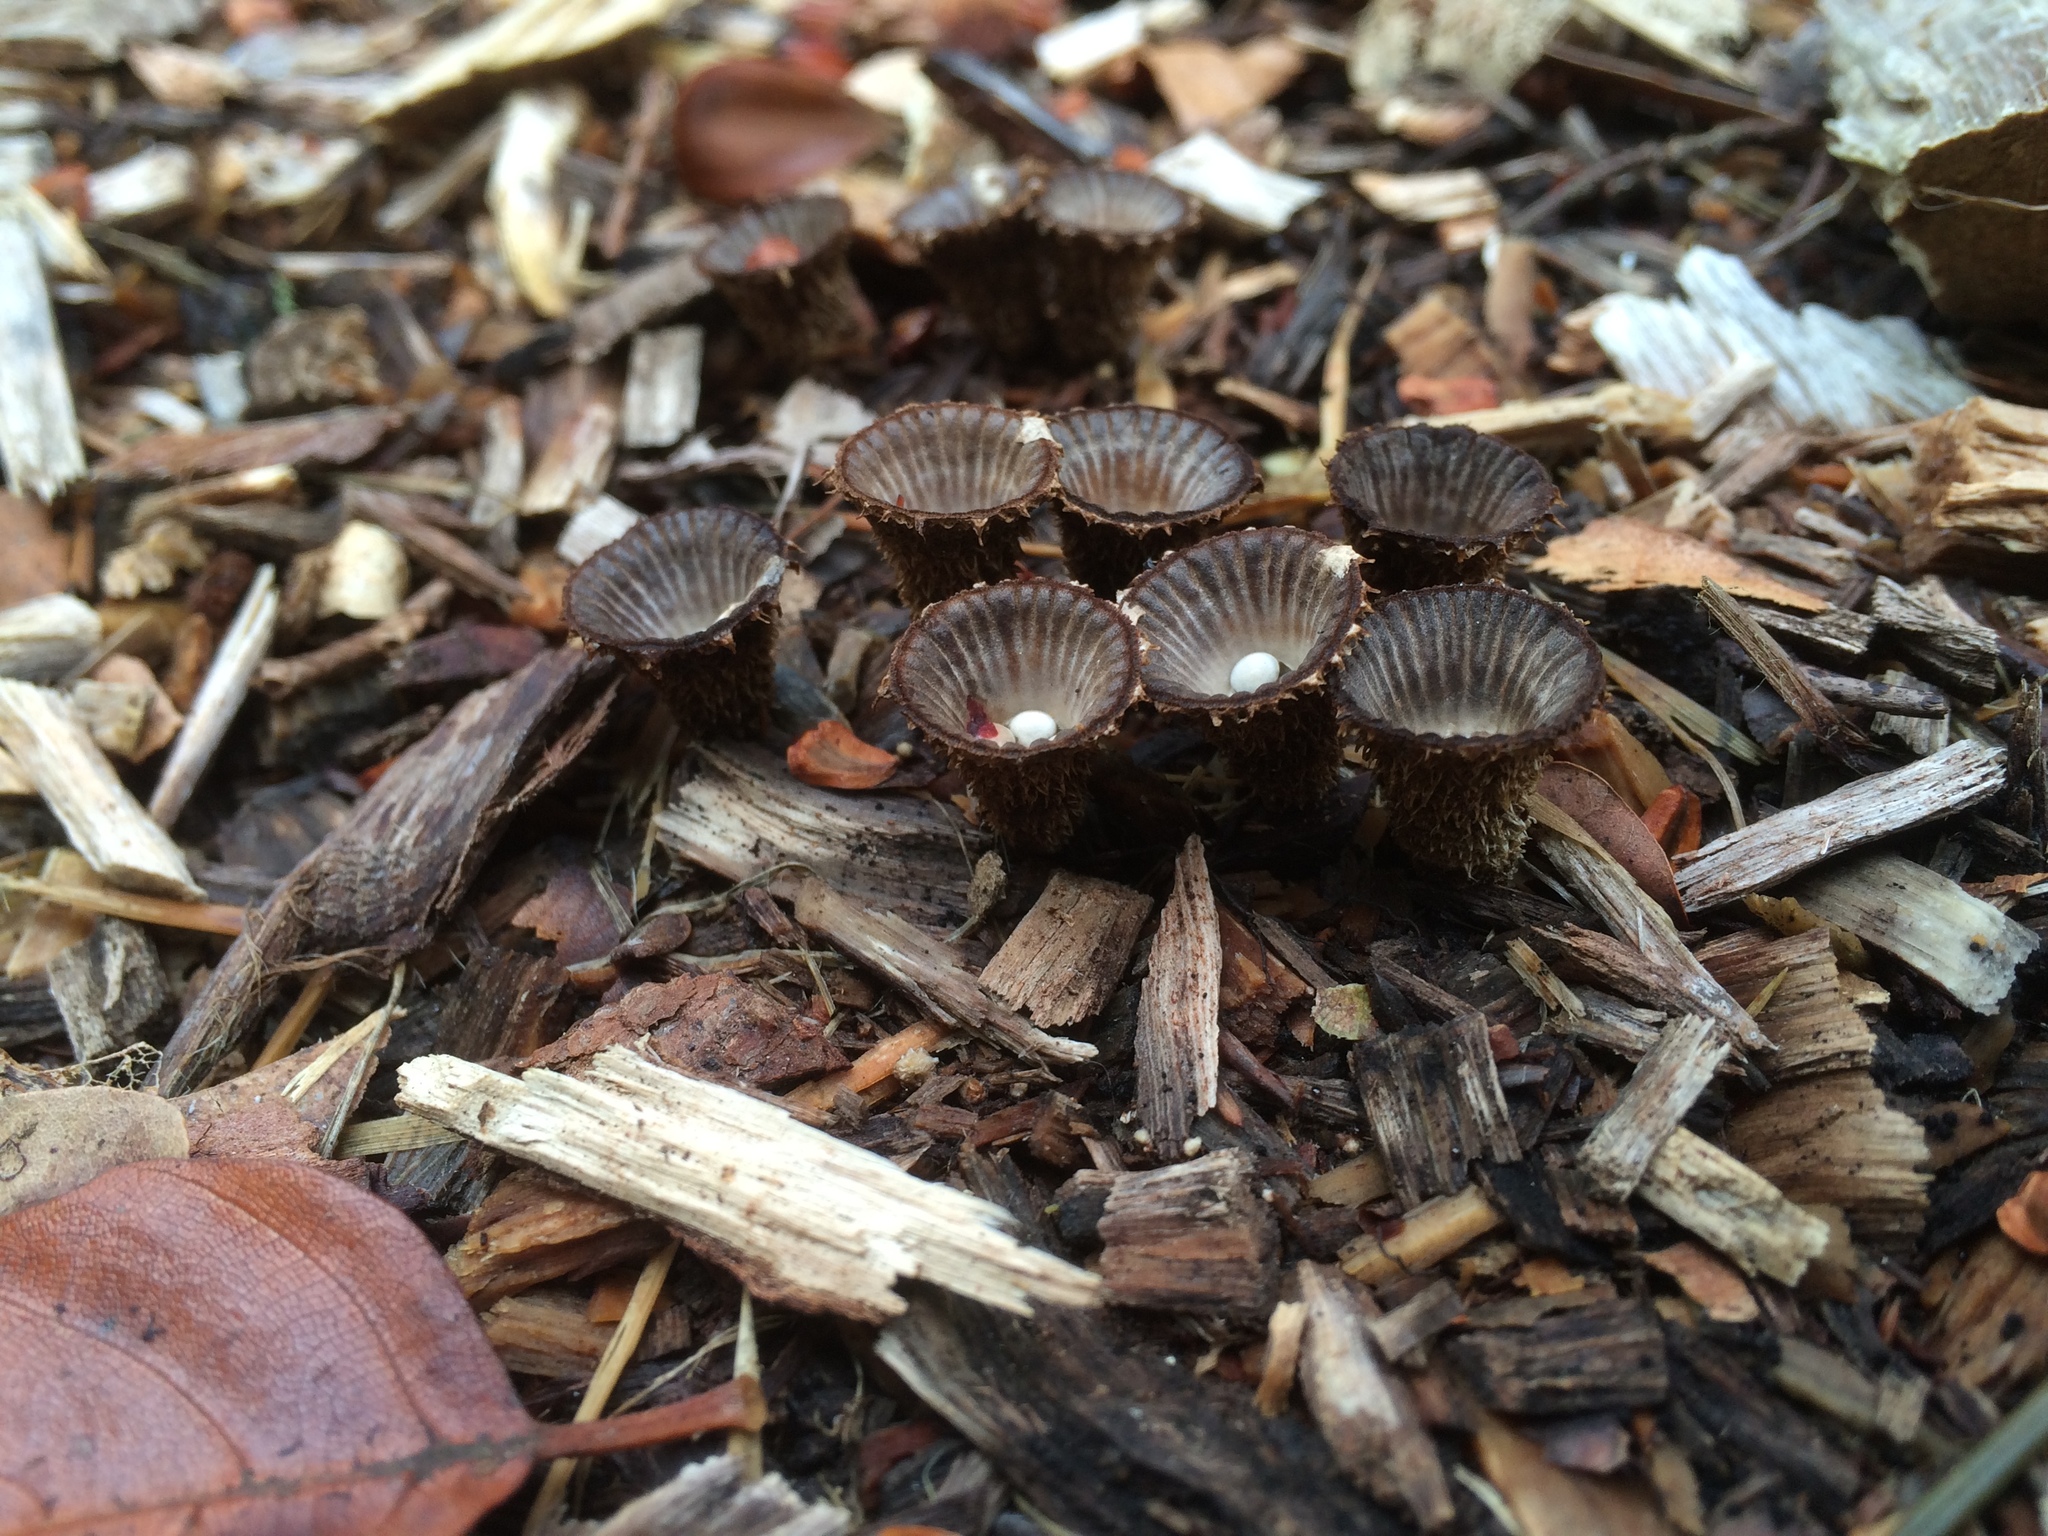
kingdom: Fungi
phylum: Basidiomycota
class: Agaricomycetes
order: Agaricales
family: Agaricaceae
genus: Cyathus
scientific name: Cyathus striatus
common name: Fluted bird's nest
